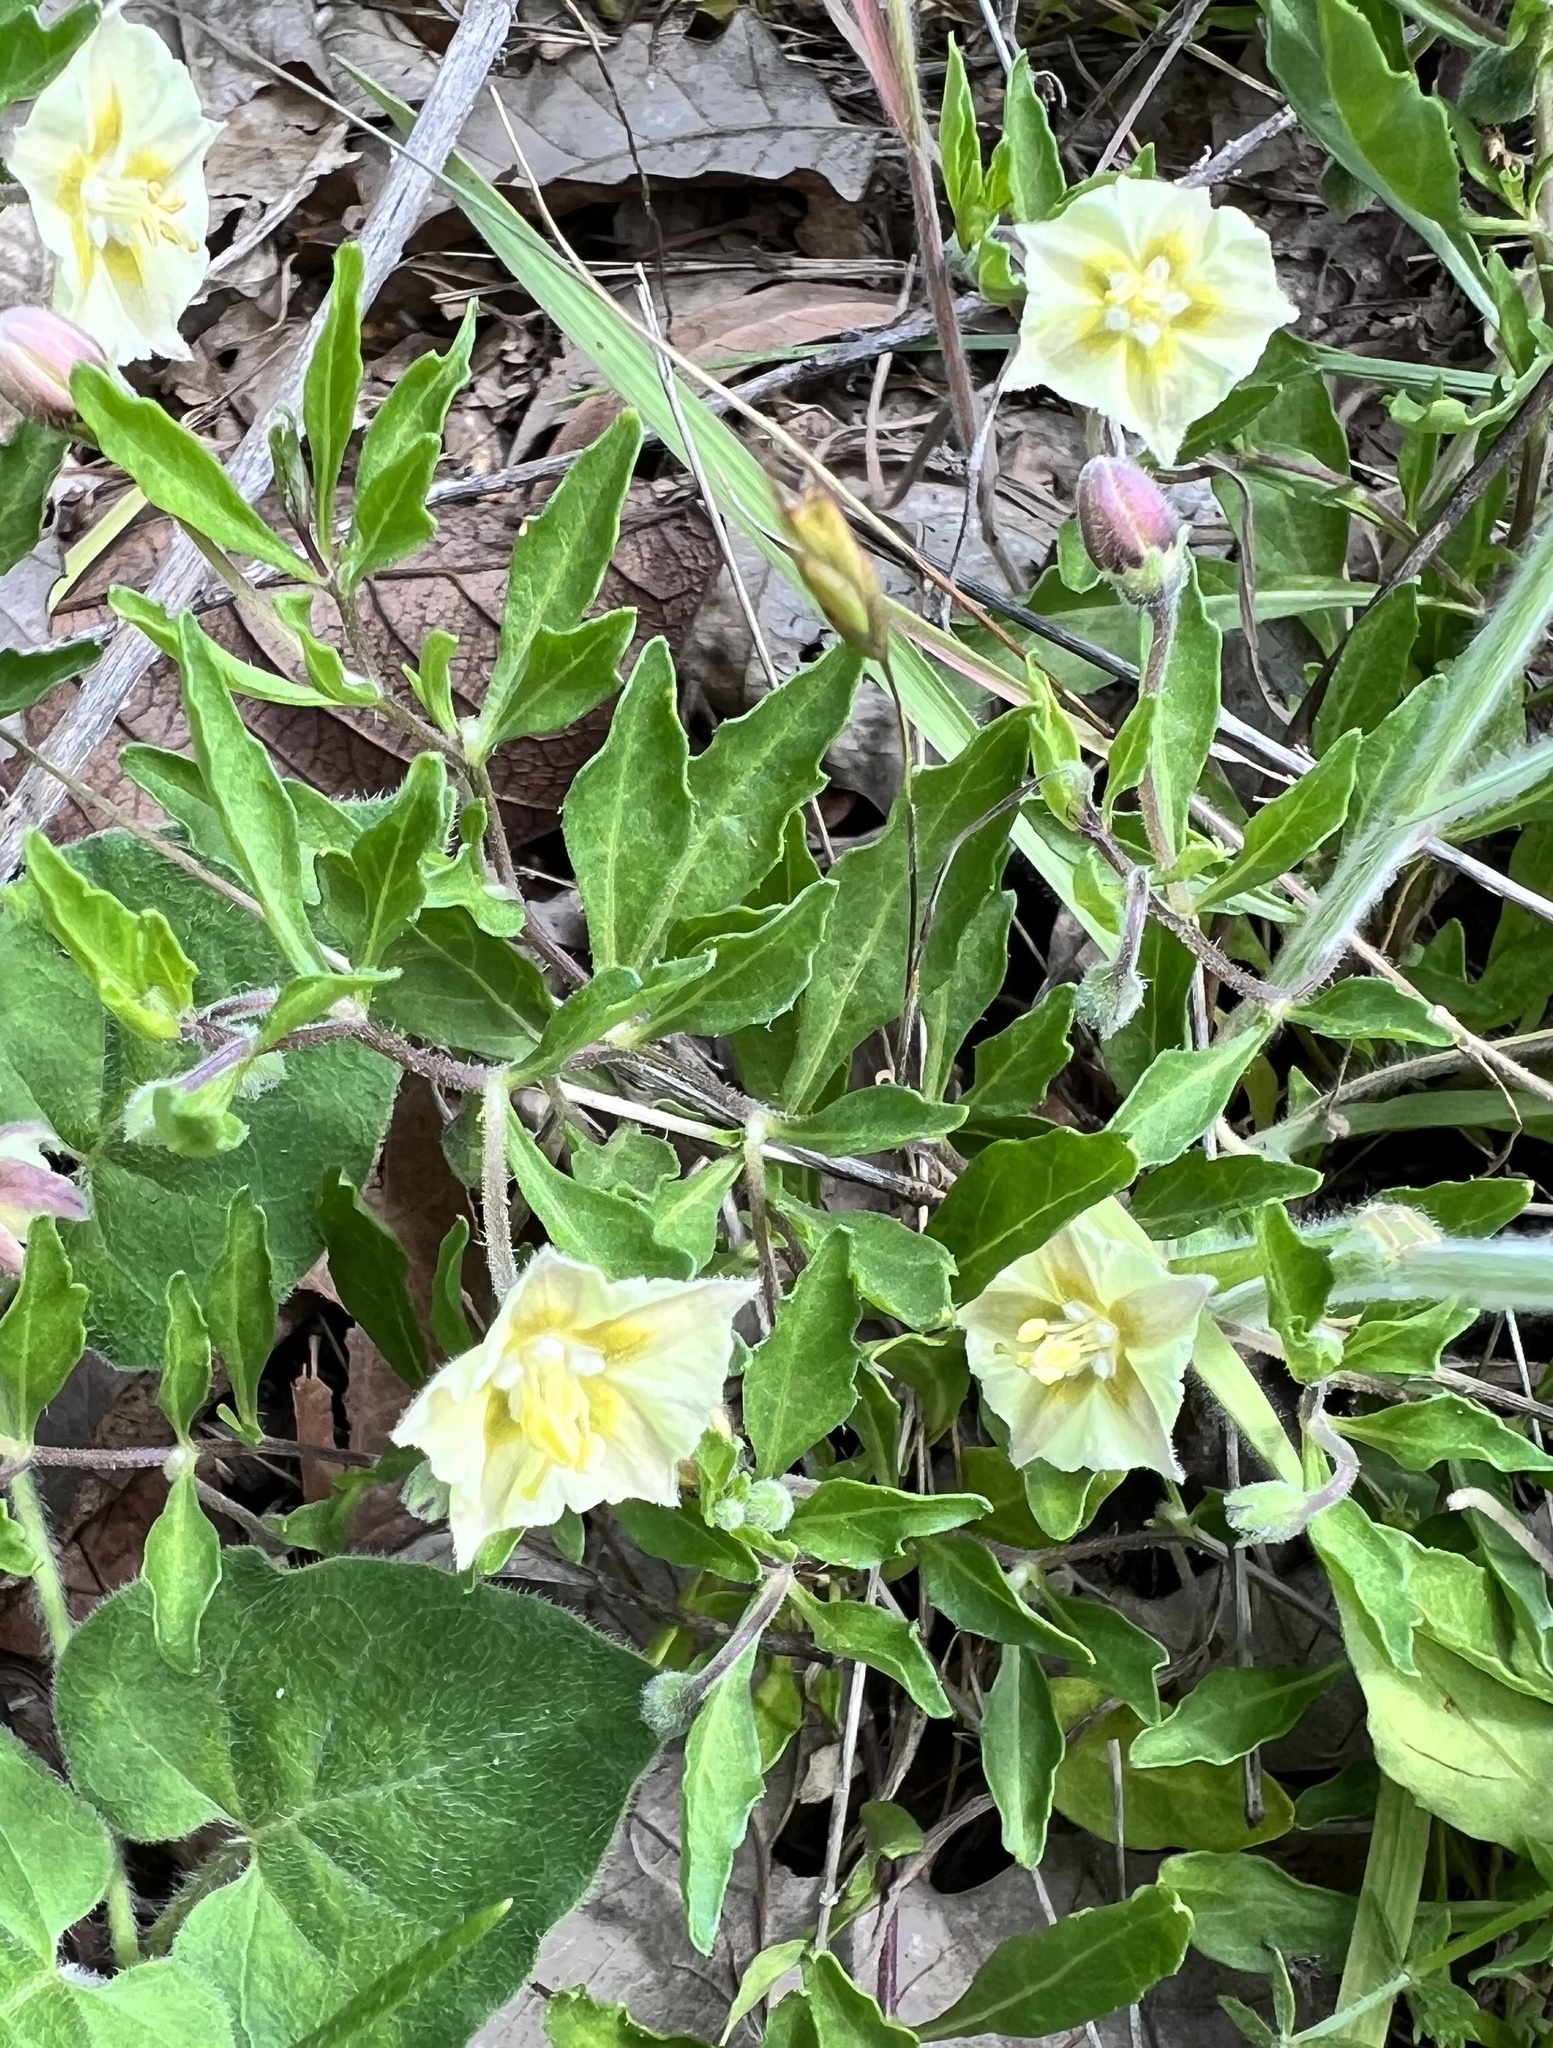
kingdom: Plantae
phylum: Tracheophyta
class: Magnoliopsida
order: Solanales
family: Solanaceae
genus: Chamaesaracha
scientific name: Chamaesaracha edwardsiana
